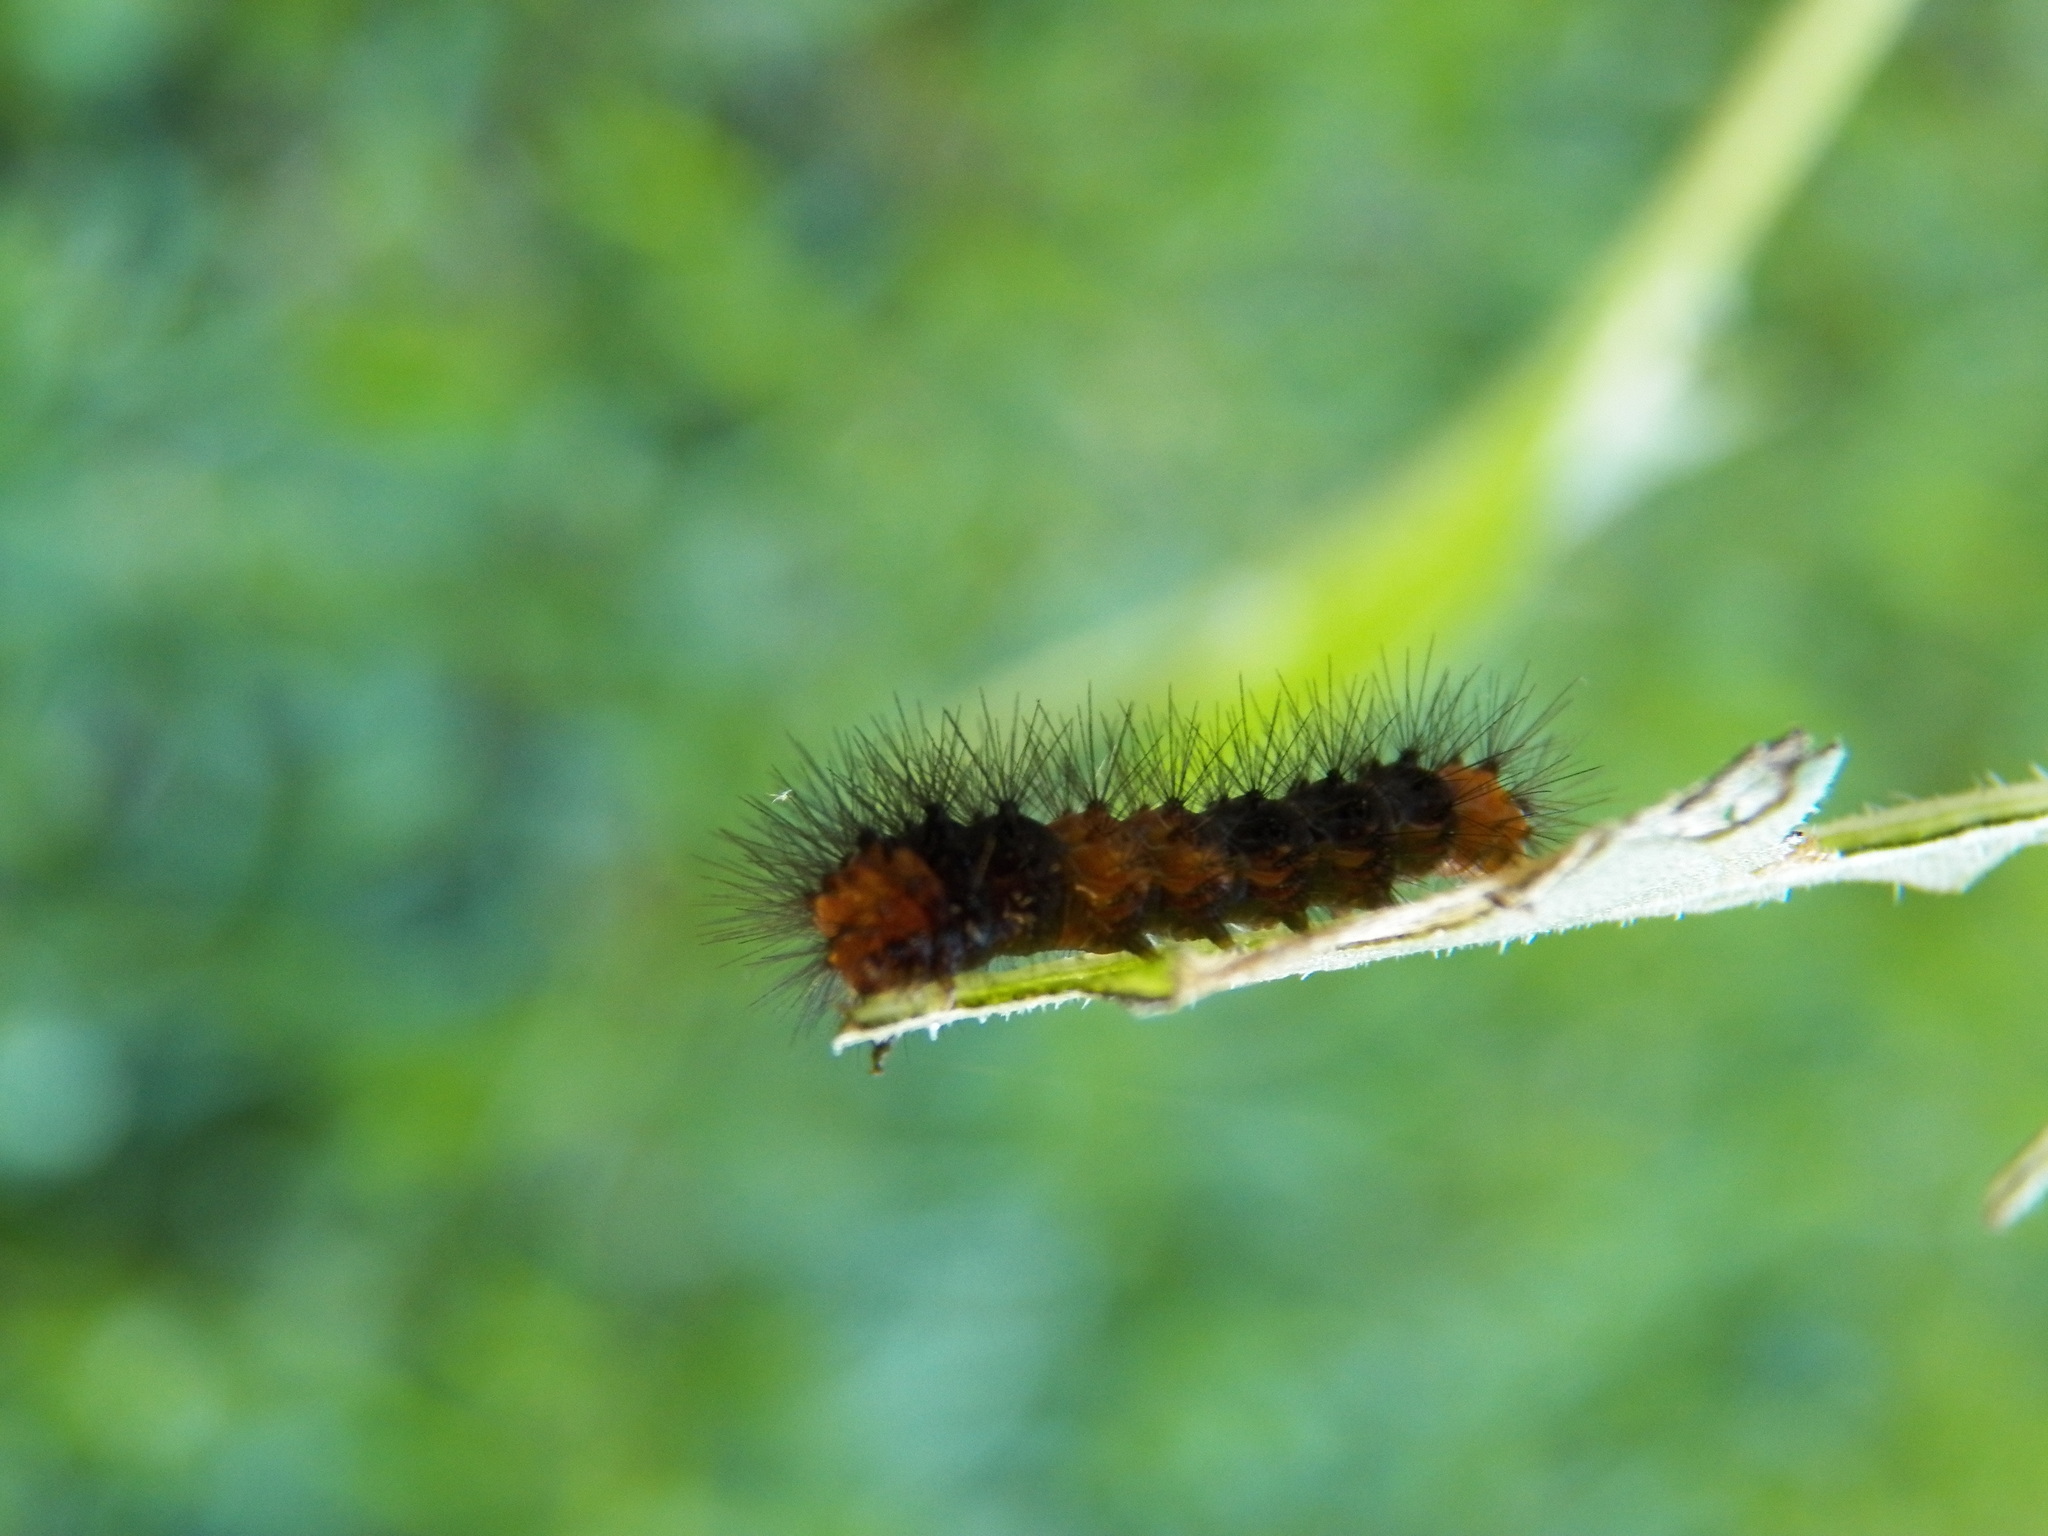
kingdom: Animalia
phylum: Arthropoda
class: Insecta
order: Lepidoptera
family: Erebidae
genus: Hypercompe
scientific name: Hypercompe scribonia
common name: Giant leopard moth
